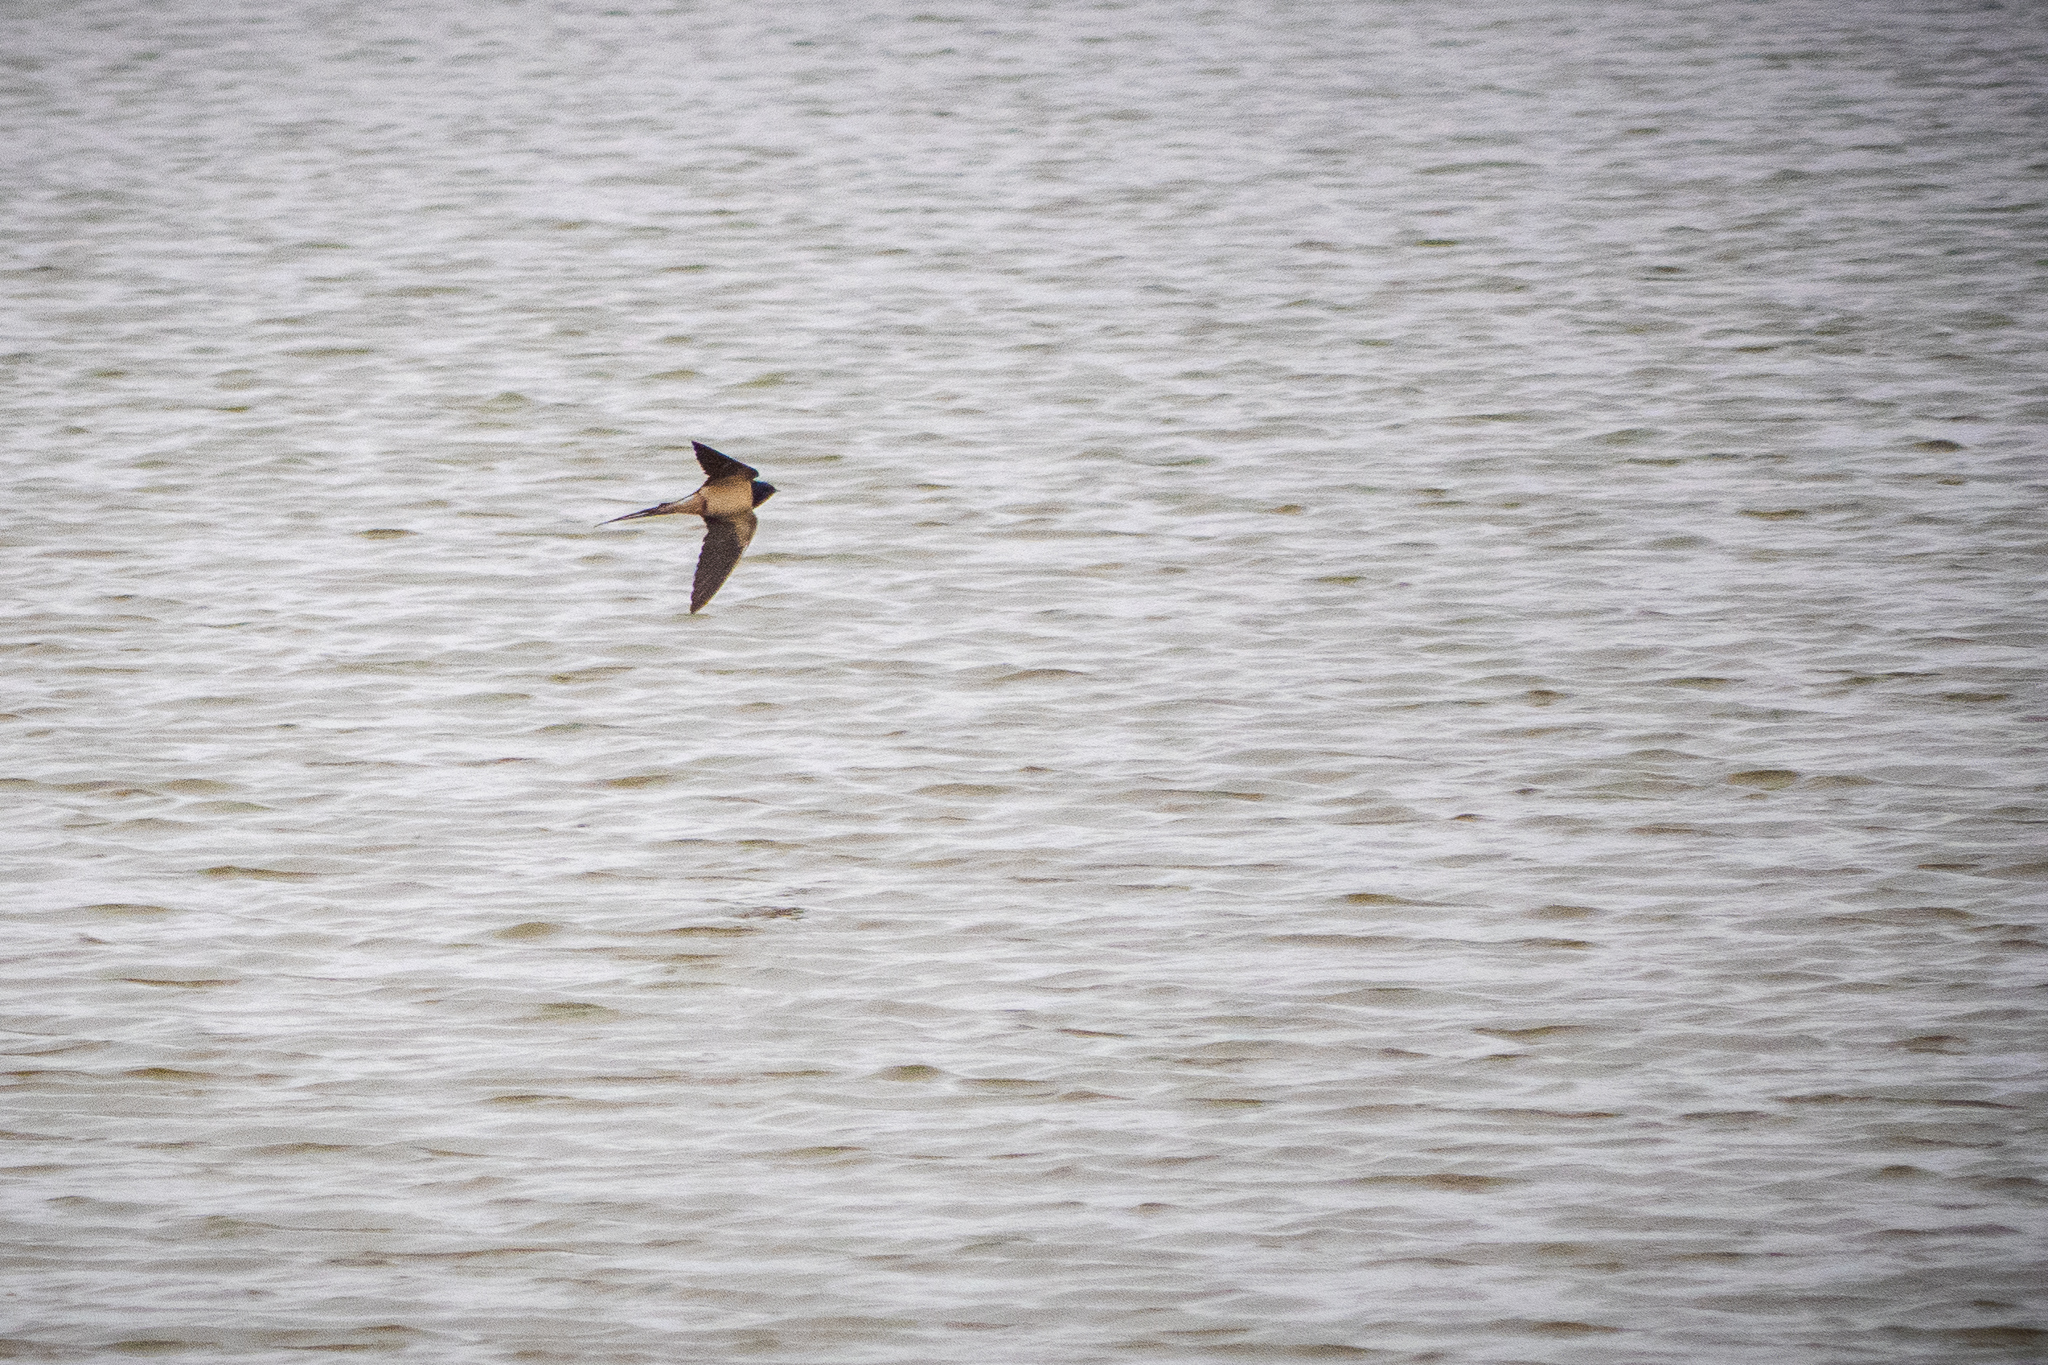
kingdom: Animalia
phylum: Chordata
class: Aves
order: Passeriformes
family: Hirundinidae
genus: Hirundo
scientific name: Hirundo rustica
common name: Barn swallow
